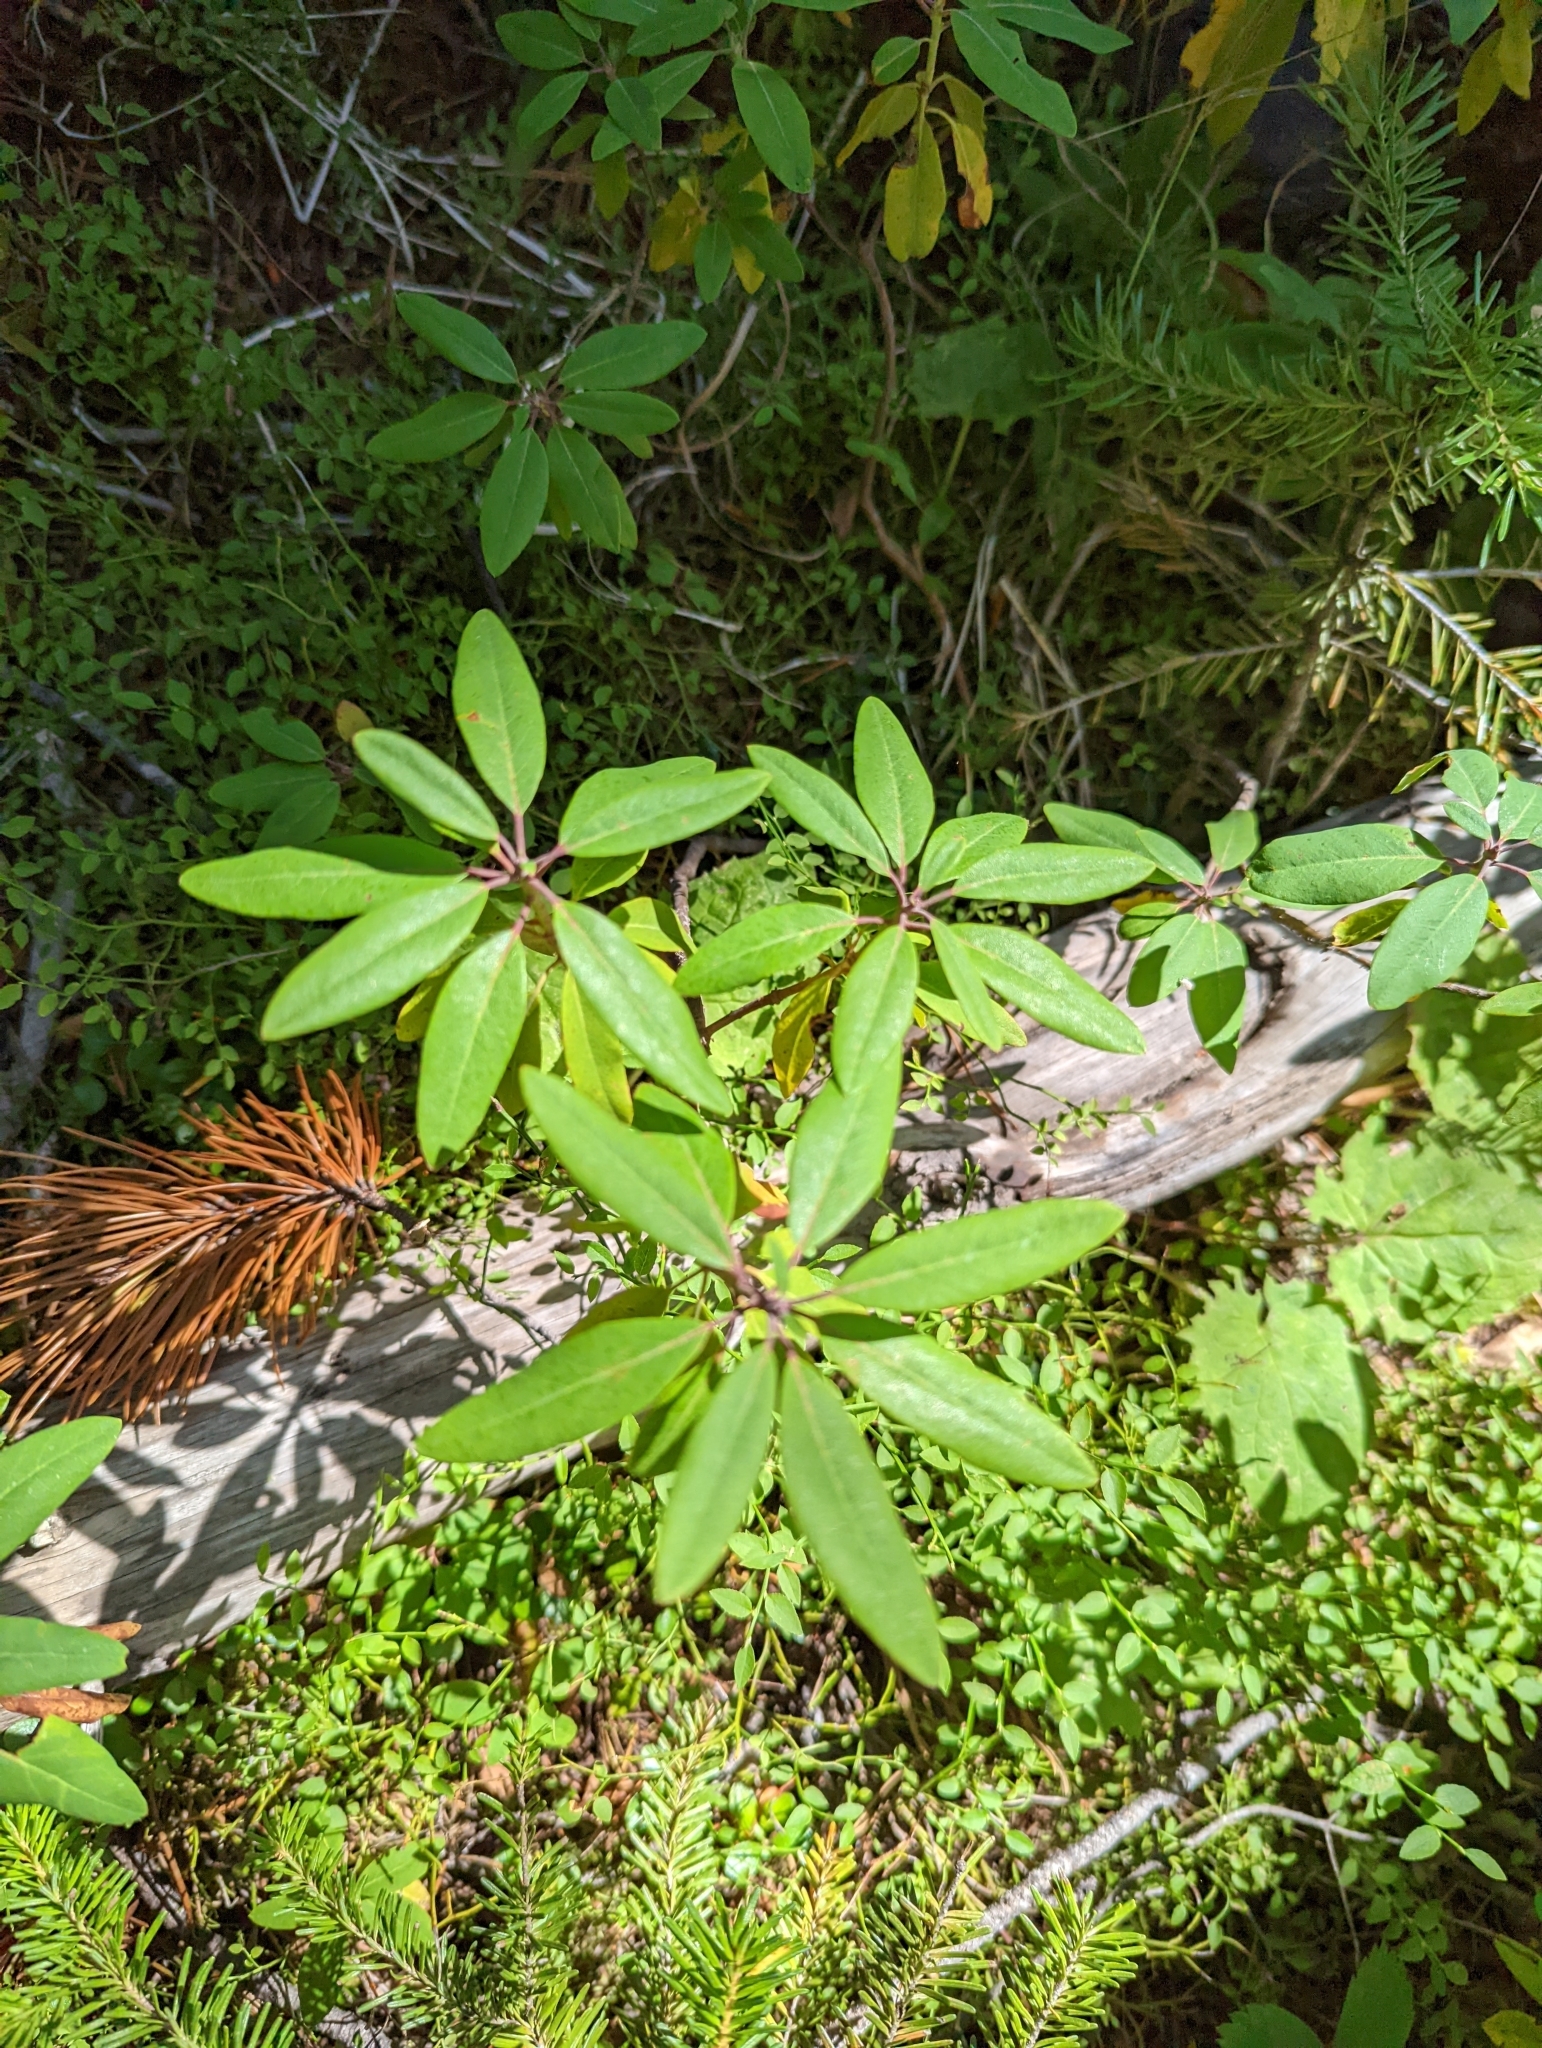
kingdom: Plantae
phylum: Tracheophyta
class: Magnoliopsida
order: Ericales
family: Ericaceae
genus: Rhododendron
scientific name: Rhododendron columbianum
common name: Western labrador tea
